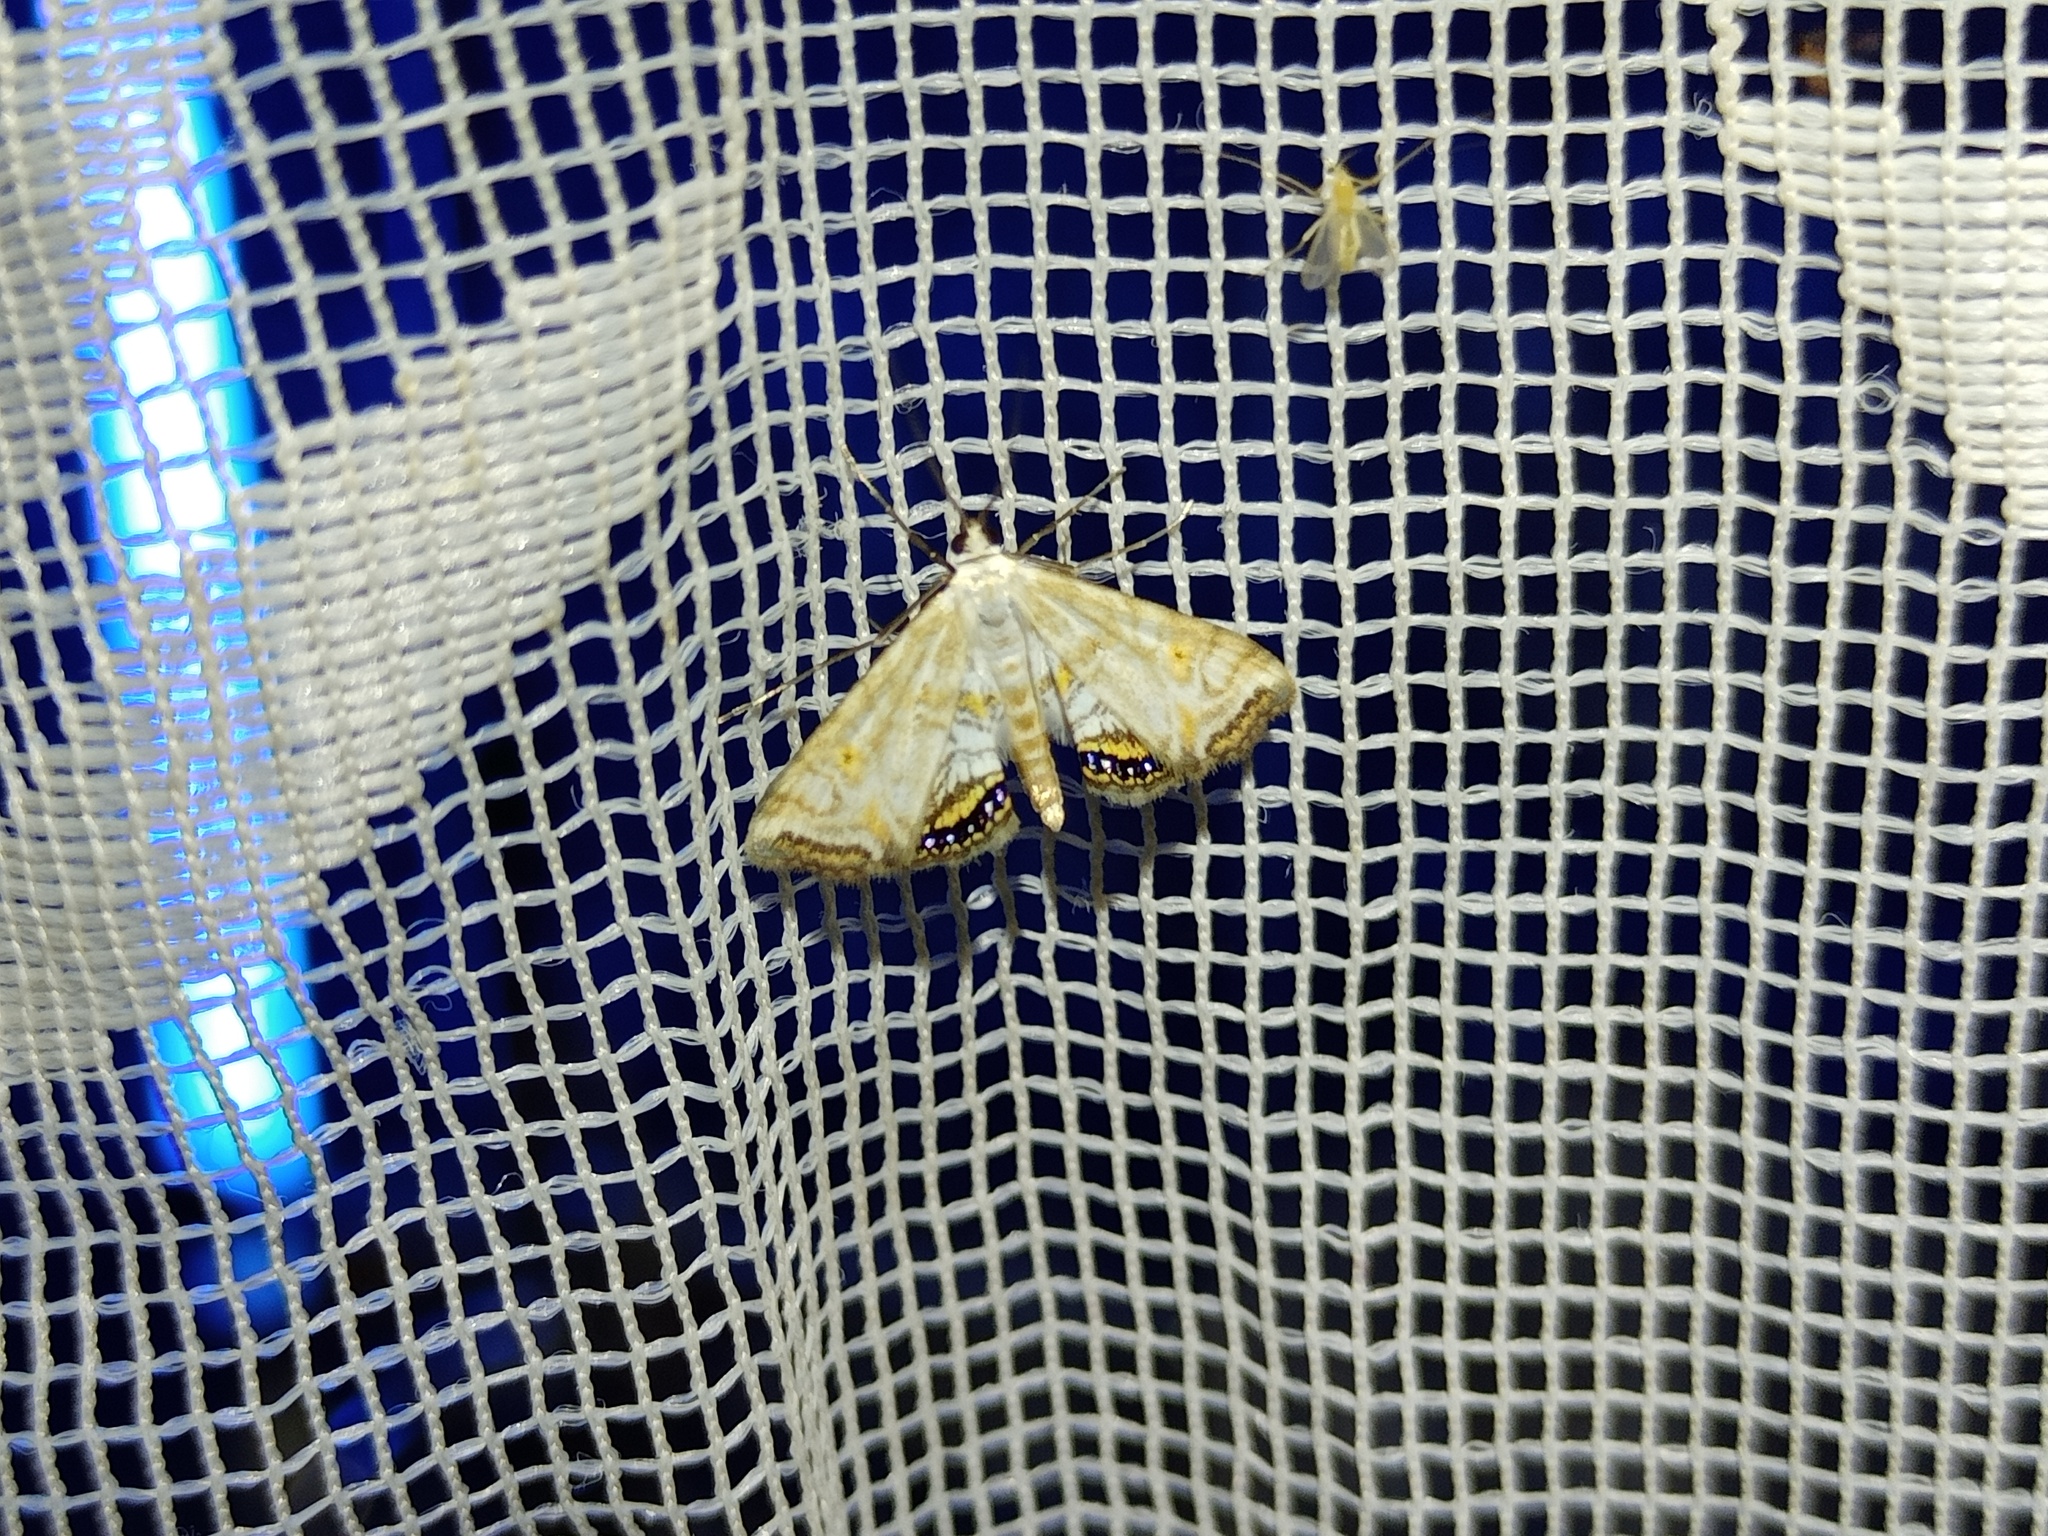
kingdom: Animalia
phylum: Arthropoda
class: Insecta
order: Lepidoptera
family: Crambidae
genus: Cataclysta
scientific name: Cataclysta lemnata
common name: Small china-mark
